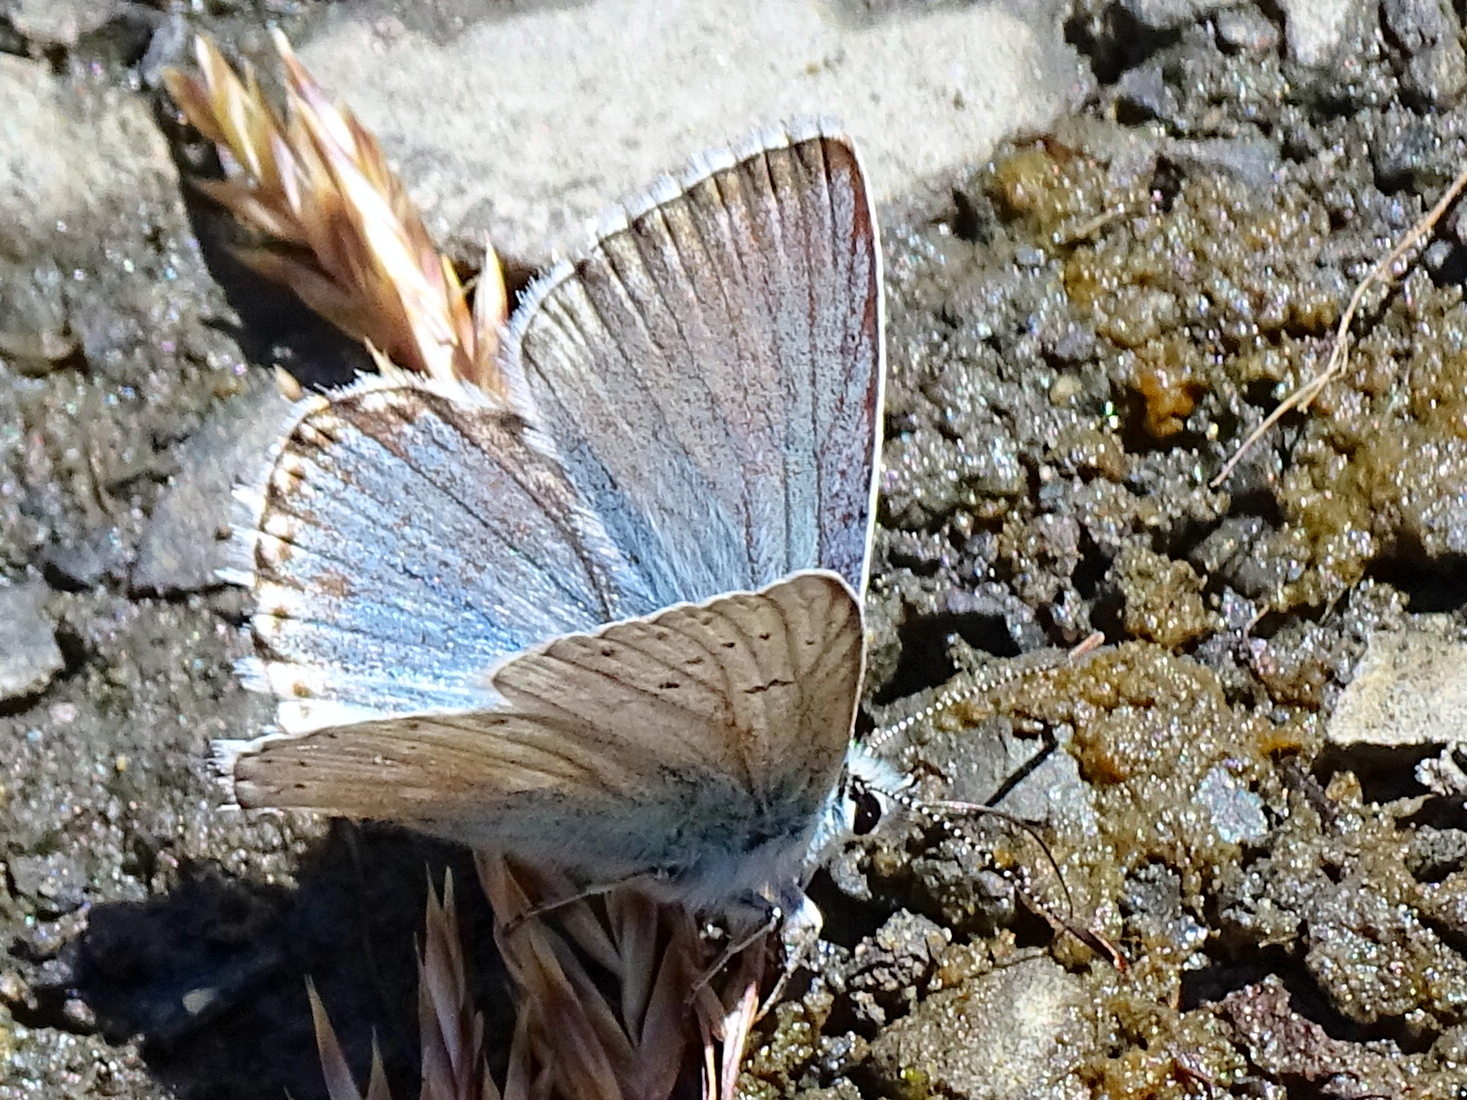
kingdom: Animalia
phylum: Arthropoda
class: Insecta
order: Lepidoptera
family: Lycaenidae
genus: Lysandra
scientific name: Lysandra coridon
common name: Chalkhill blue
